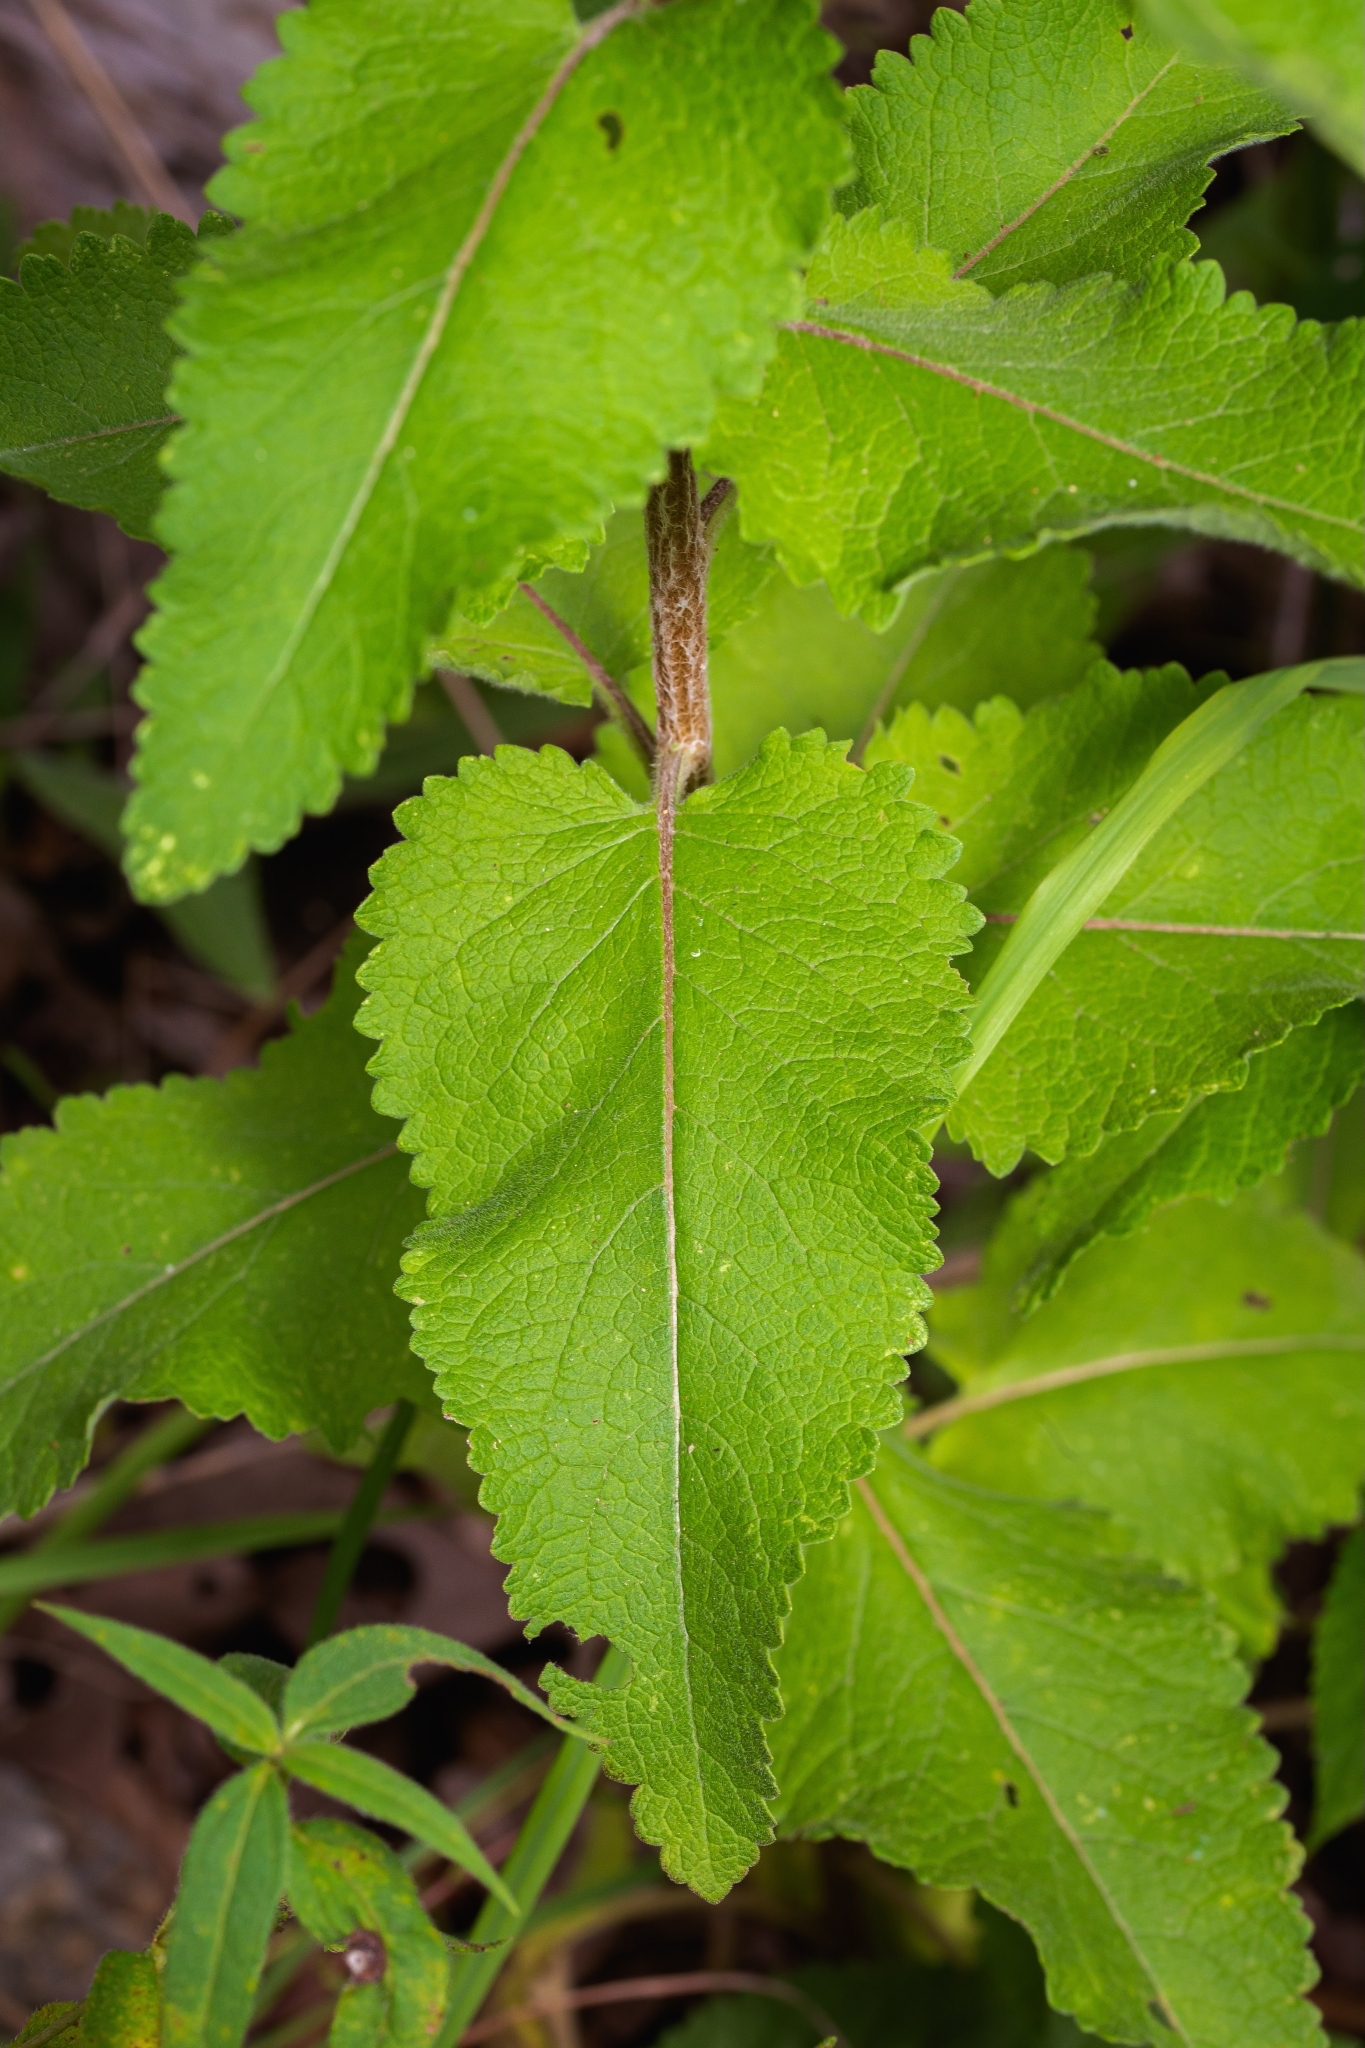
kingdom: Plantae
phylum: Tracheophyta
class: Magnoliopsida
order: Asterales
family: Asteraceae
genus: Berlandiera
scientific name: Berlandiera texana
